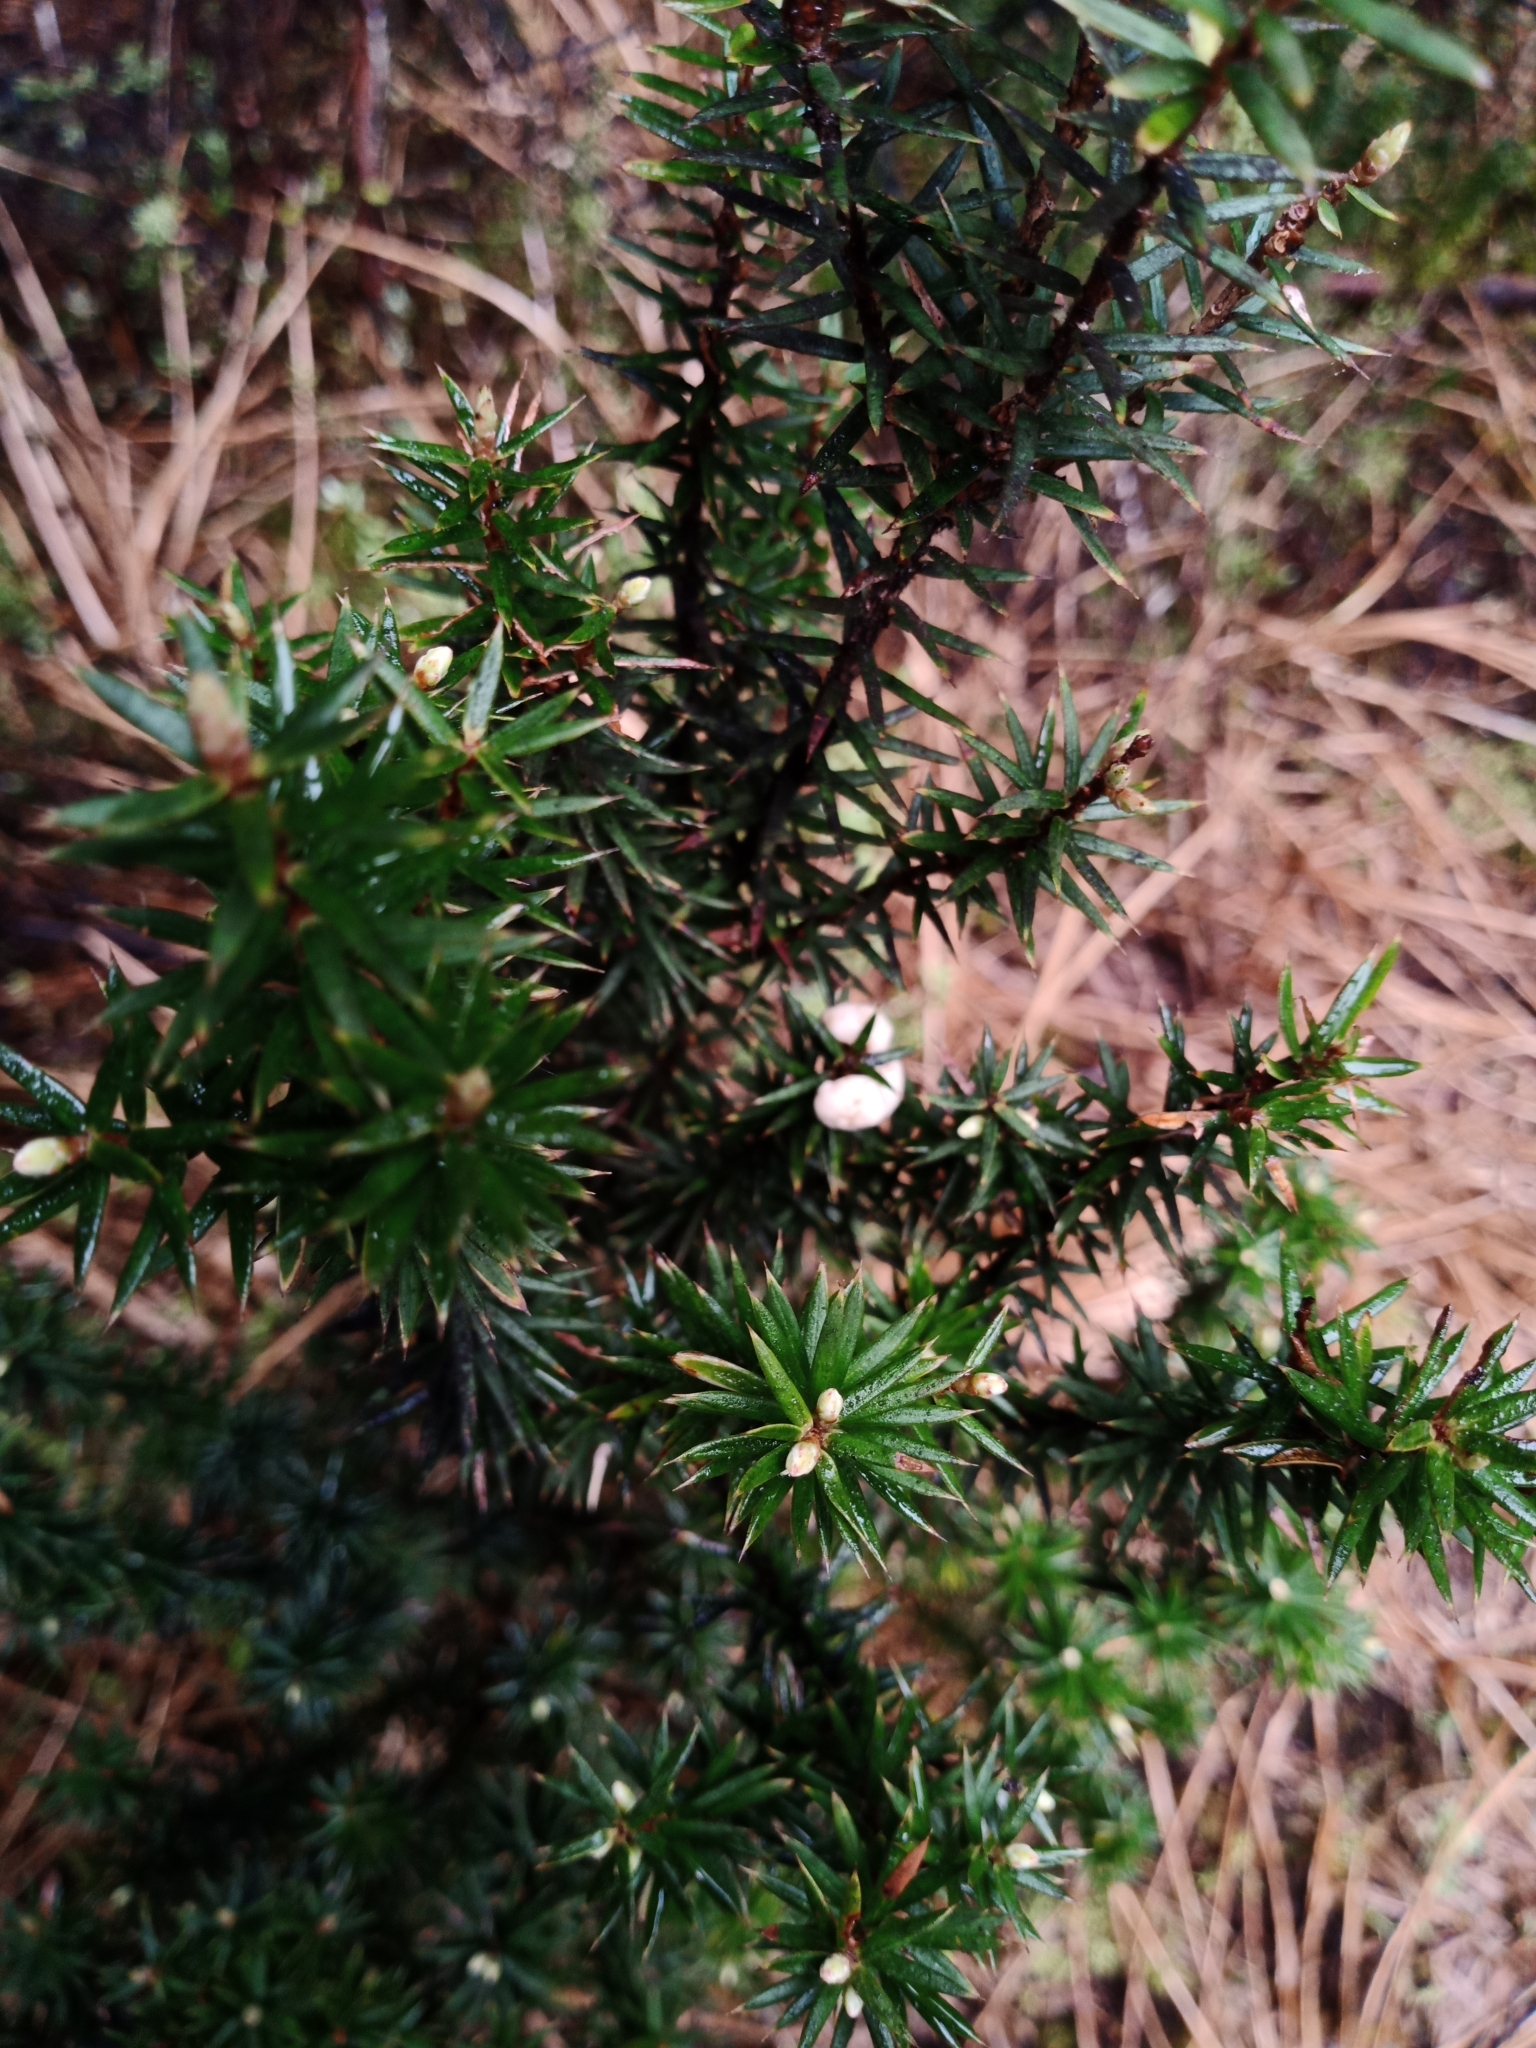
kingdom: Plantae
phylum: Tracheophyta
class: Magnoliopsida
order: Ericales
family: Ericaceae
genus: Leptecophylla
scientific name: Leptecophylla juniperina
